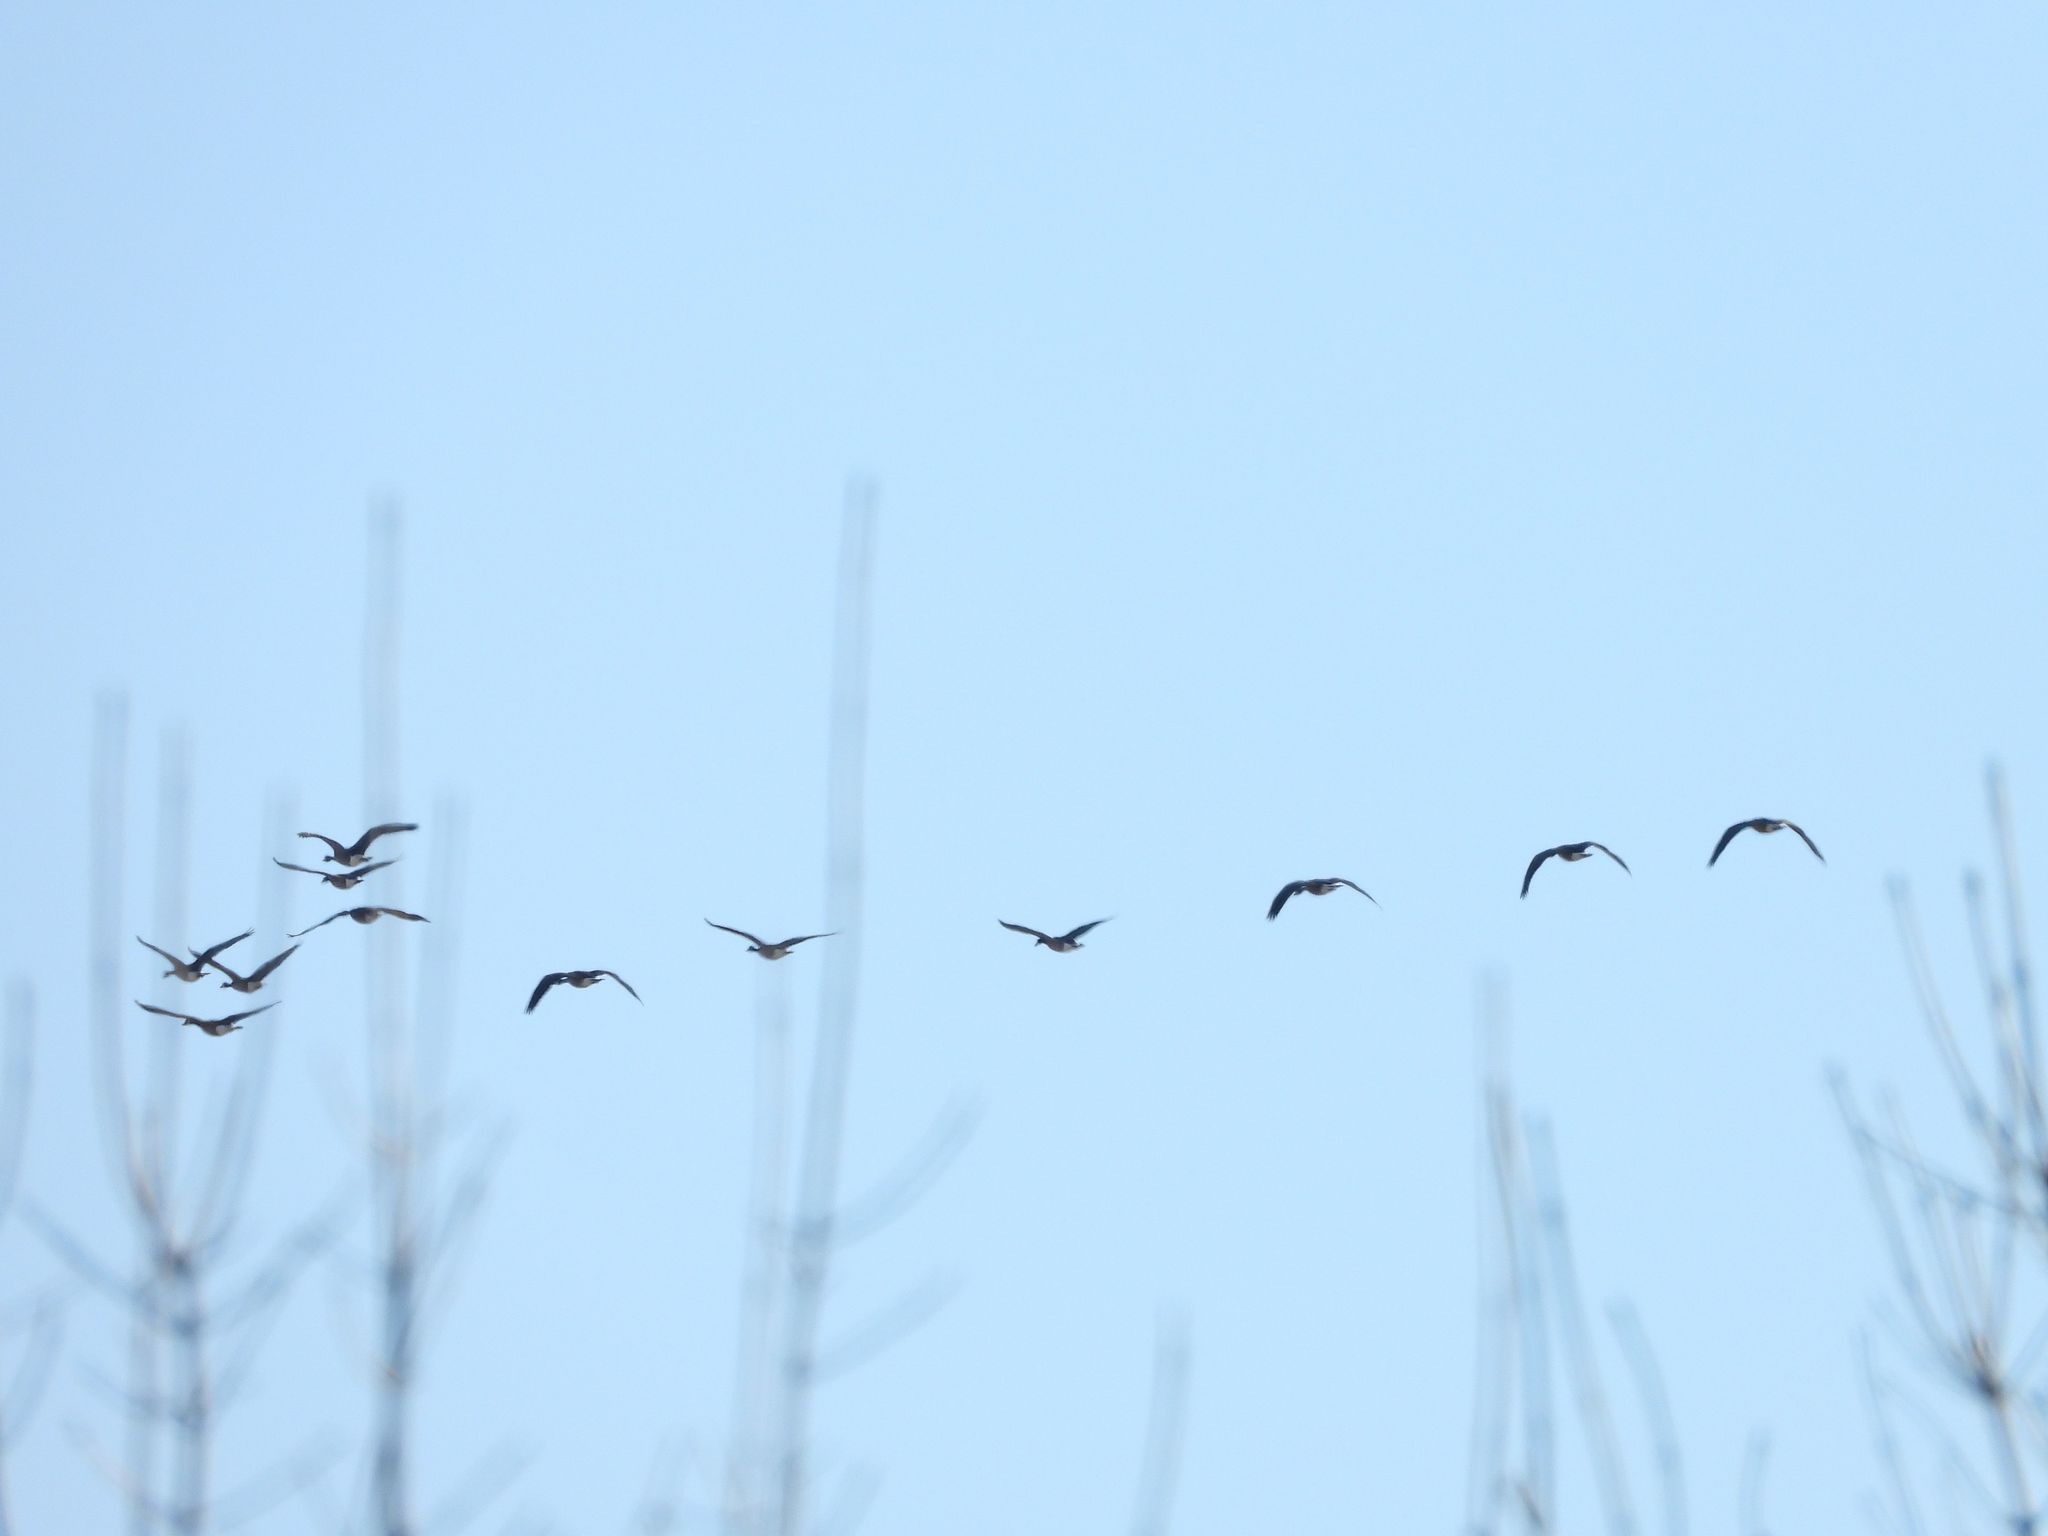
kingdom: Animalia
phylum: Chordata
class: Aves
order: Anseriformes
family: Anatidae
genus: Branta
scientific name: Branta canadensis
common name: Canada goose
